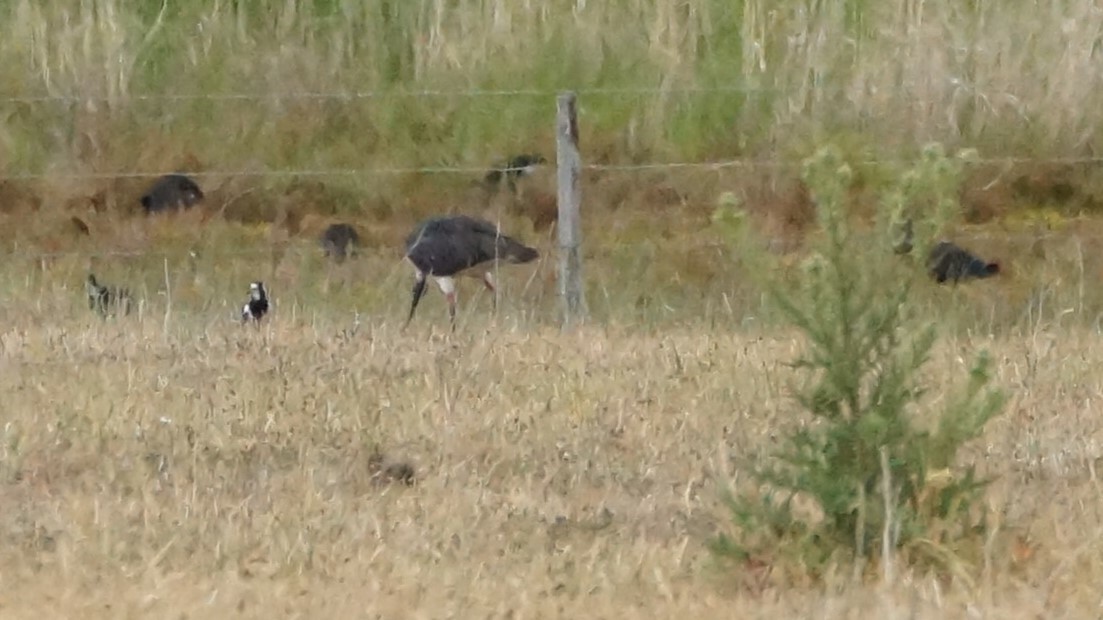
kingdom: Animalia
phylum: Chordata
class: Aves
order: Pelecaniformes
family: Threskiornithidae
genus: Threskiornis
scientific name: Threskiornis spinicollis
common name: Straw-necked ibis
